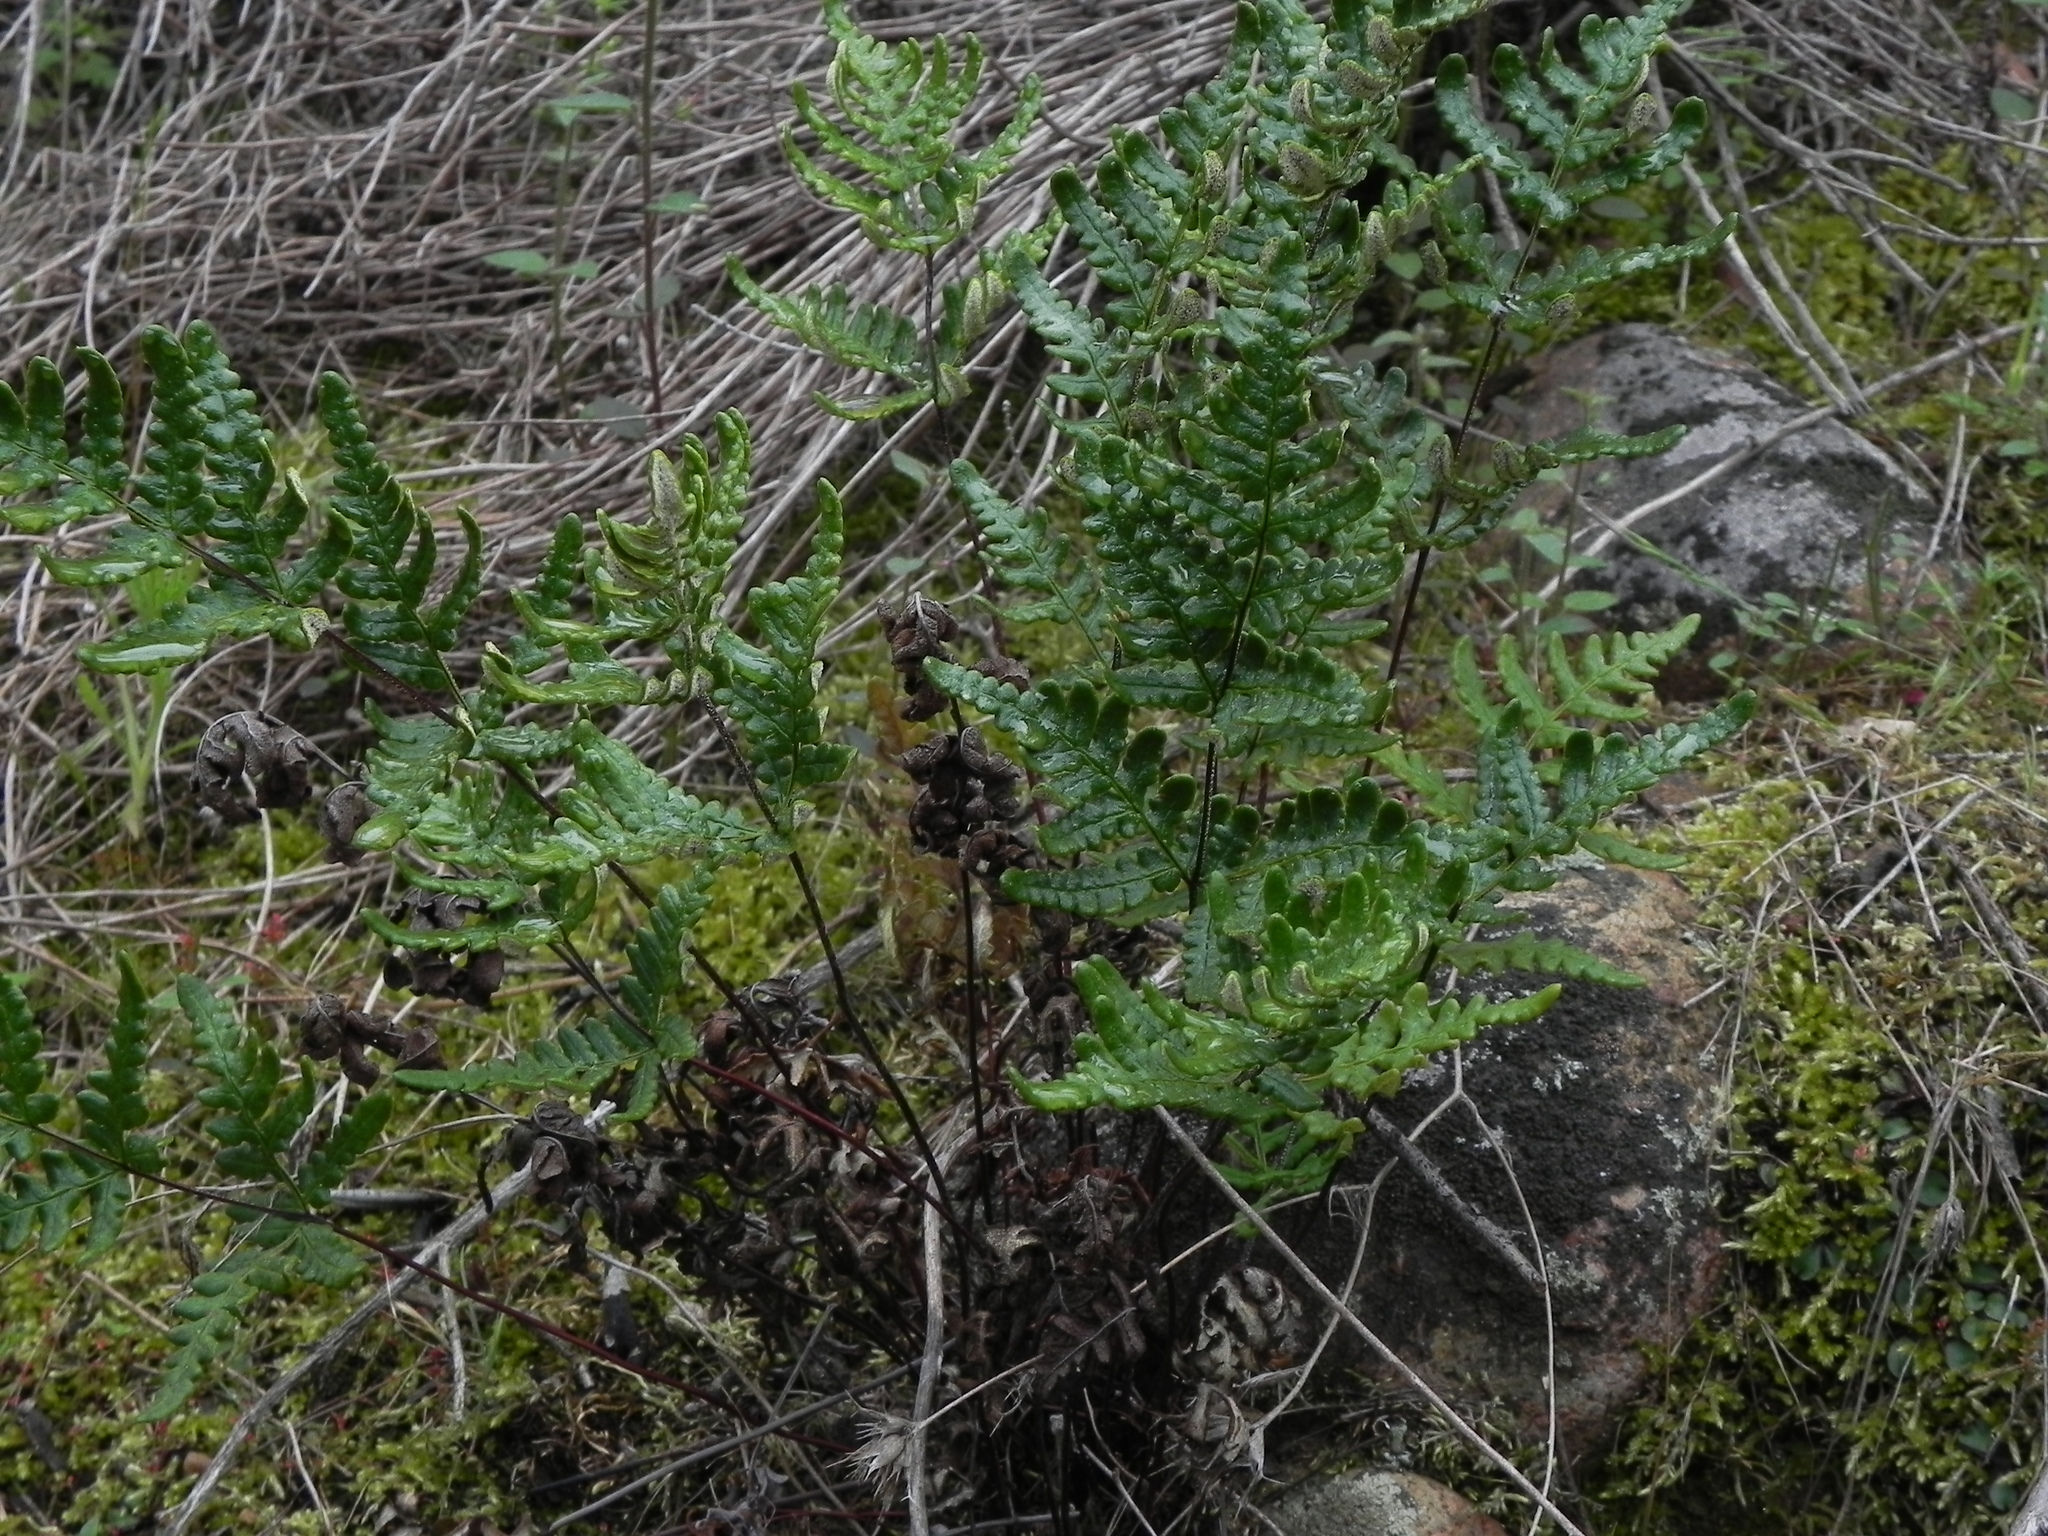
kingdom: Plantae
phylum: Tracheophyta
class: Polypodiopsida
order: Polypodiales
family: Pteridaceae
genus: Pentagramma
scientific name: Pentagramma viscosa
